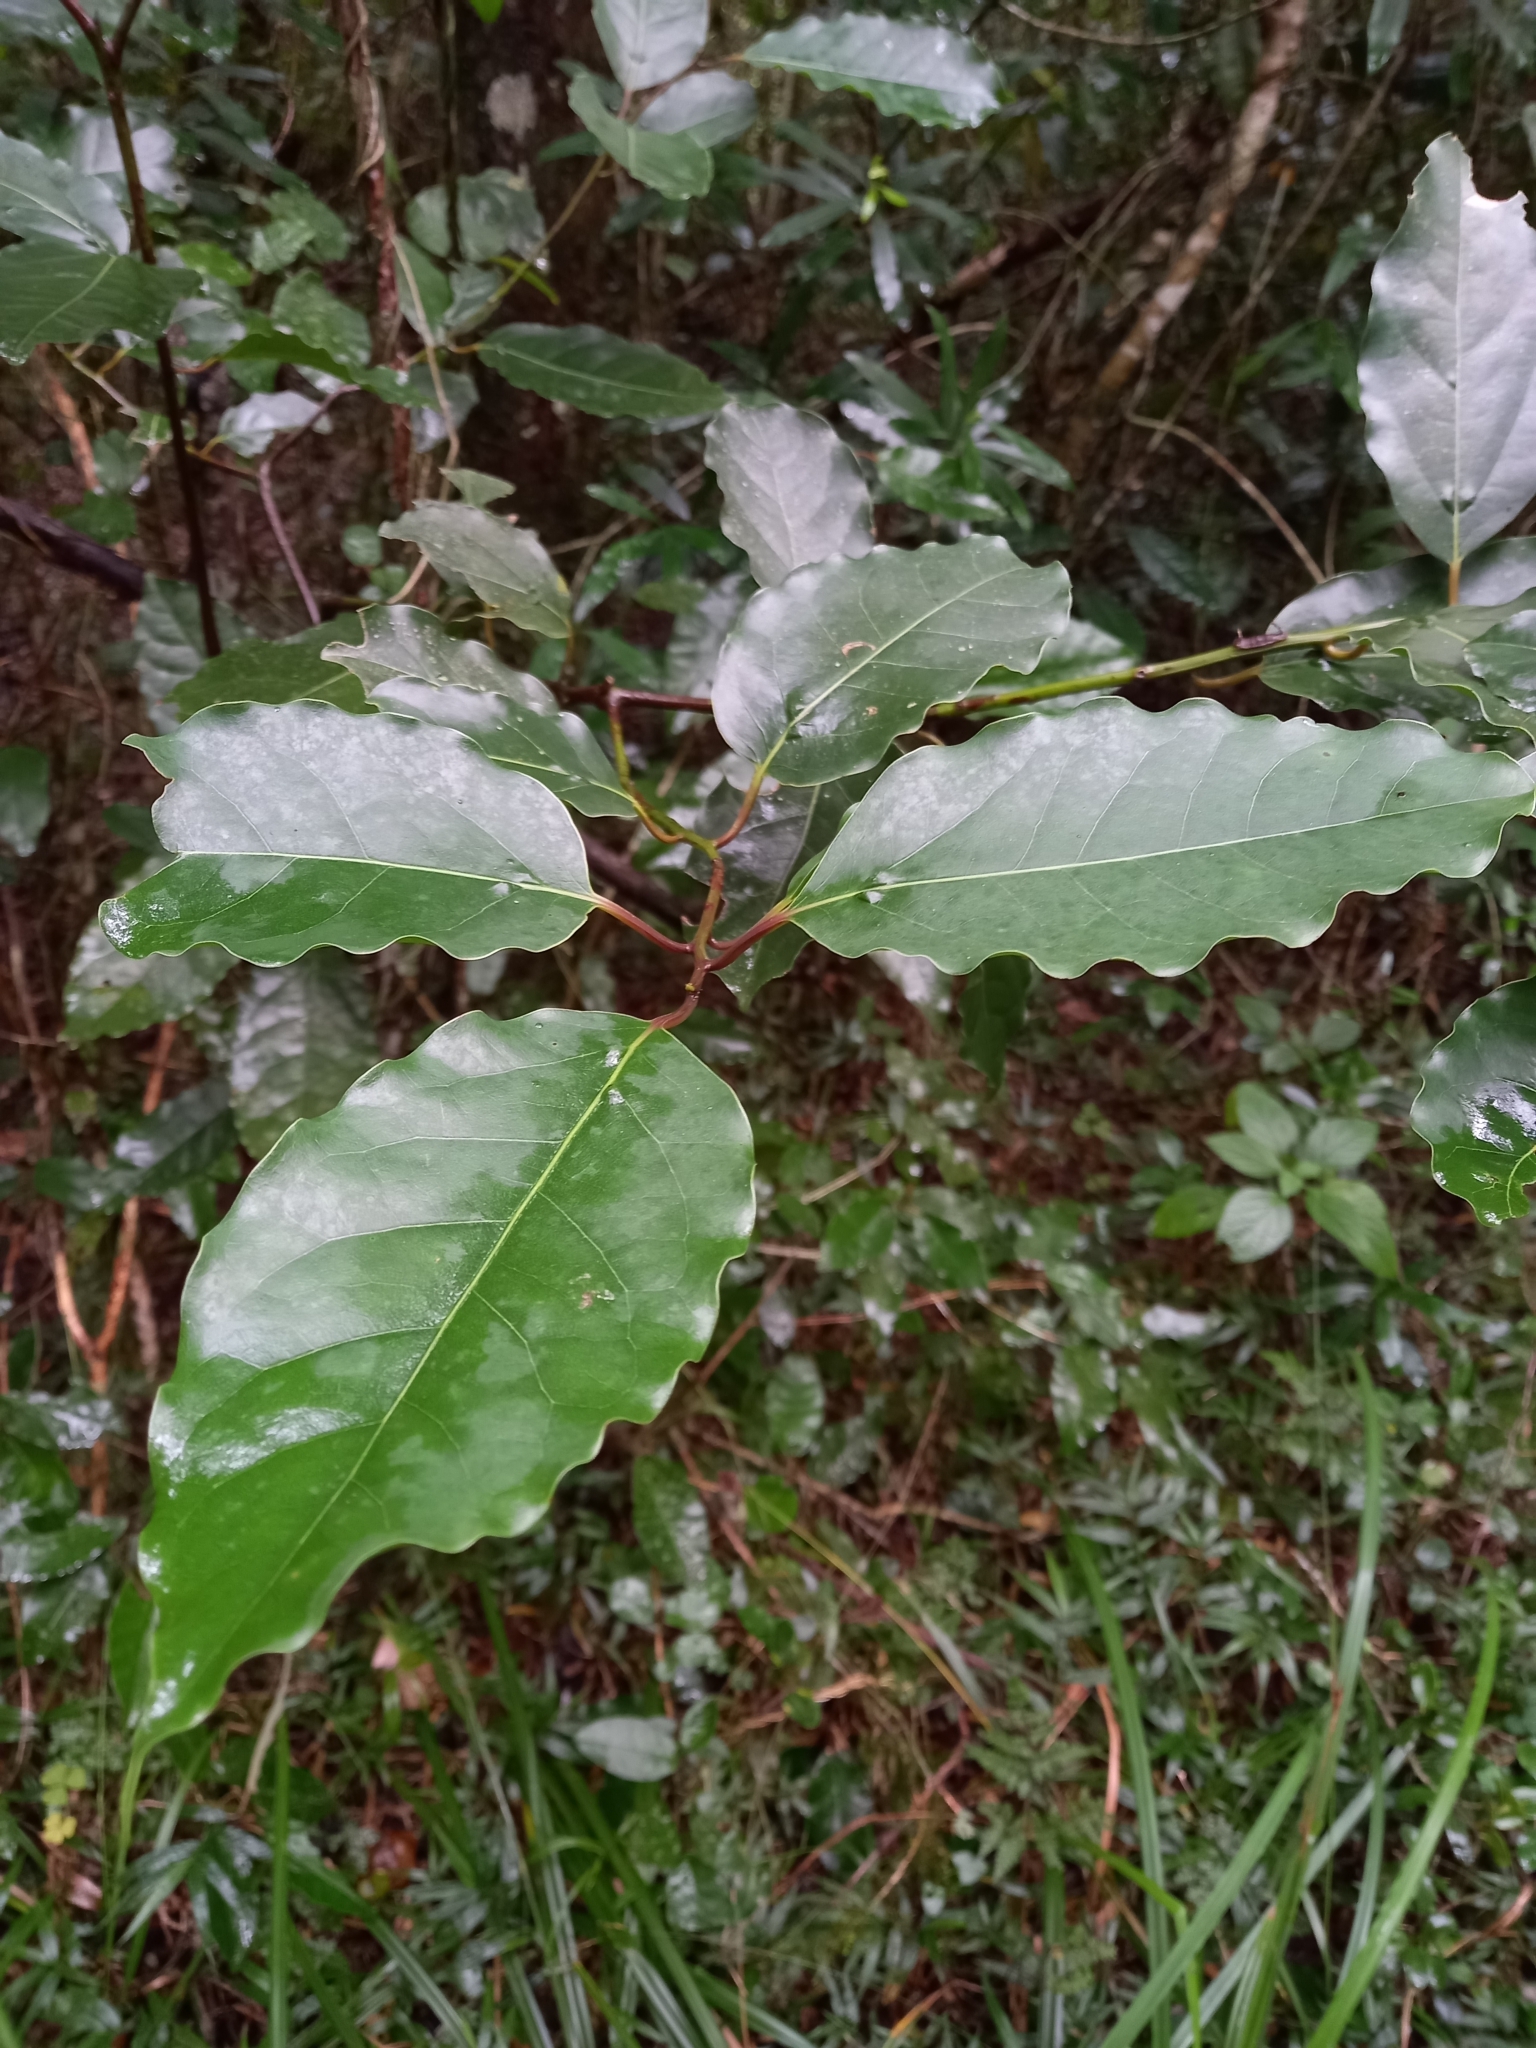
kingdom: Plantae
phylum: Tracheophyta
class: Magnoliopsida
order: Laurales
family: Lauraceae
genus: Ocotea
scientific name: Ocotea bullata
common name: Black stinkwood
